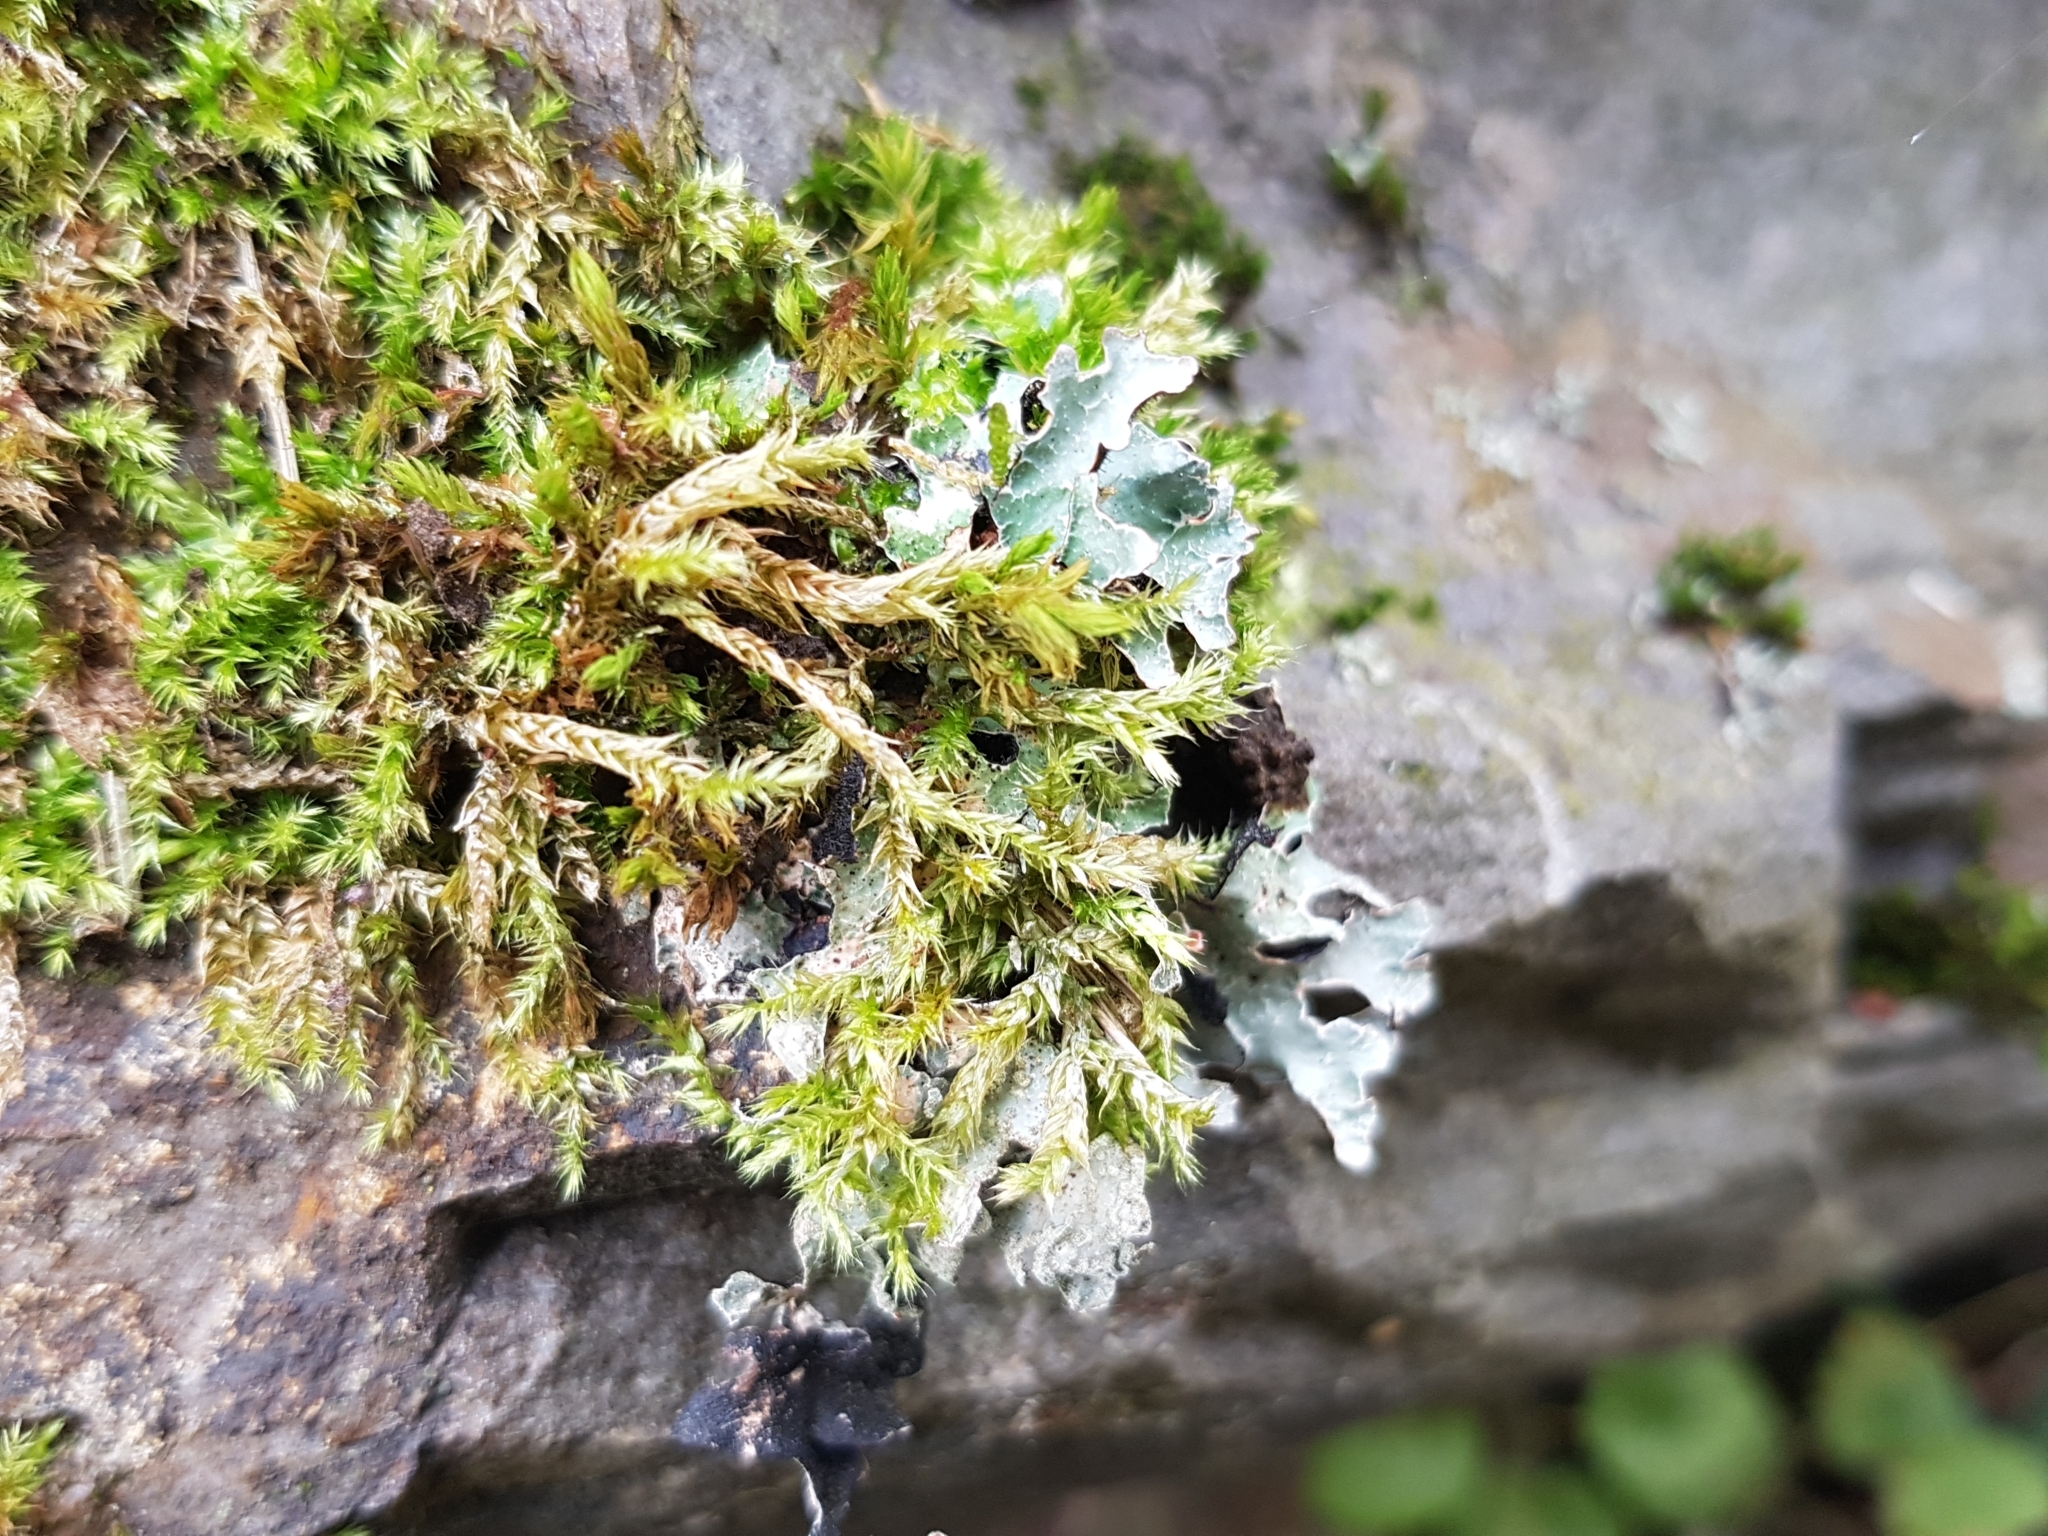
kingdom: Fungi
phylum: Ascomycota
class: Lecanoromycetes
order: Lecanorales
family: Parmeliaceae
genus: Parmelia
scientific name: Parmelia sulcata
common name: Netted shield lichen
